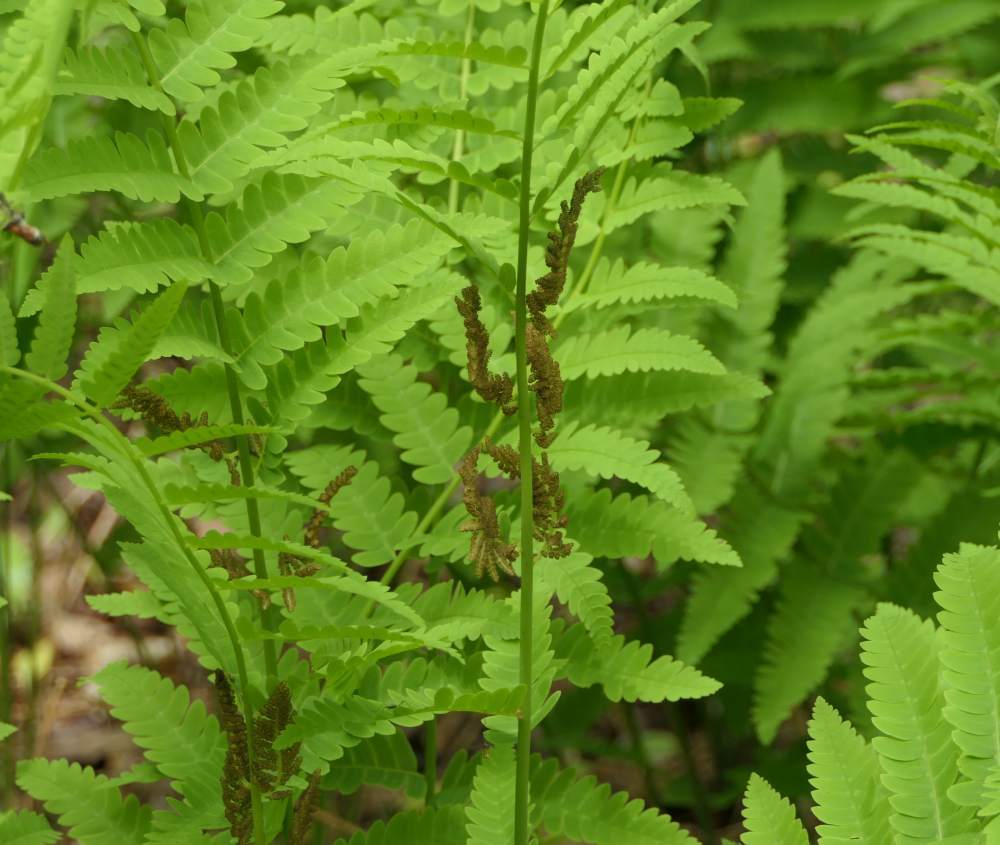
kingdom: Plantae
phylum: Tracheophyta
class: Polypodiopsida
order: Osmundales
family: Osmundaceae
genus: Claytosmunda
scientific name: Claytosmunda claytoniana
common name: Clayton's fern
